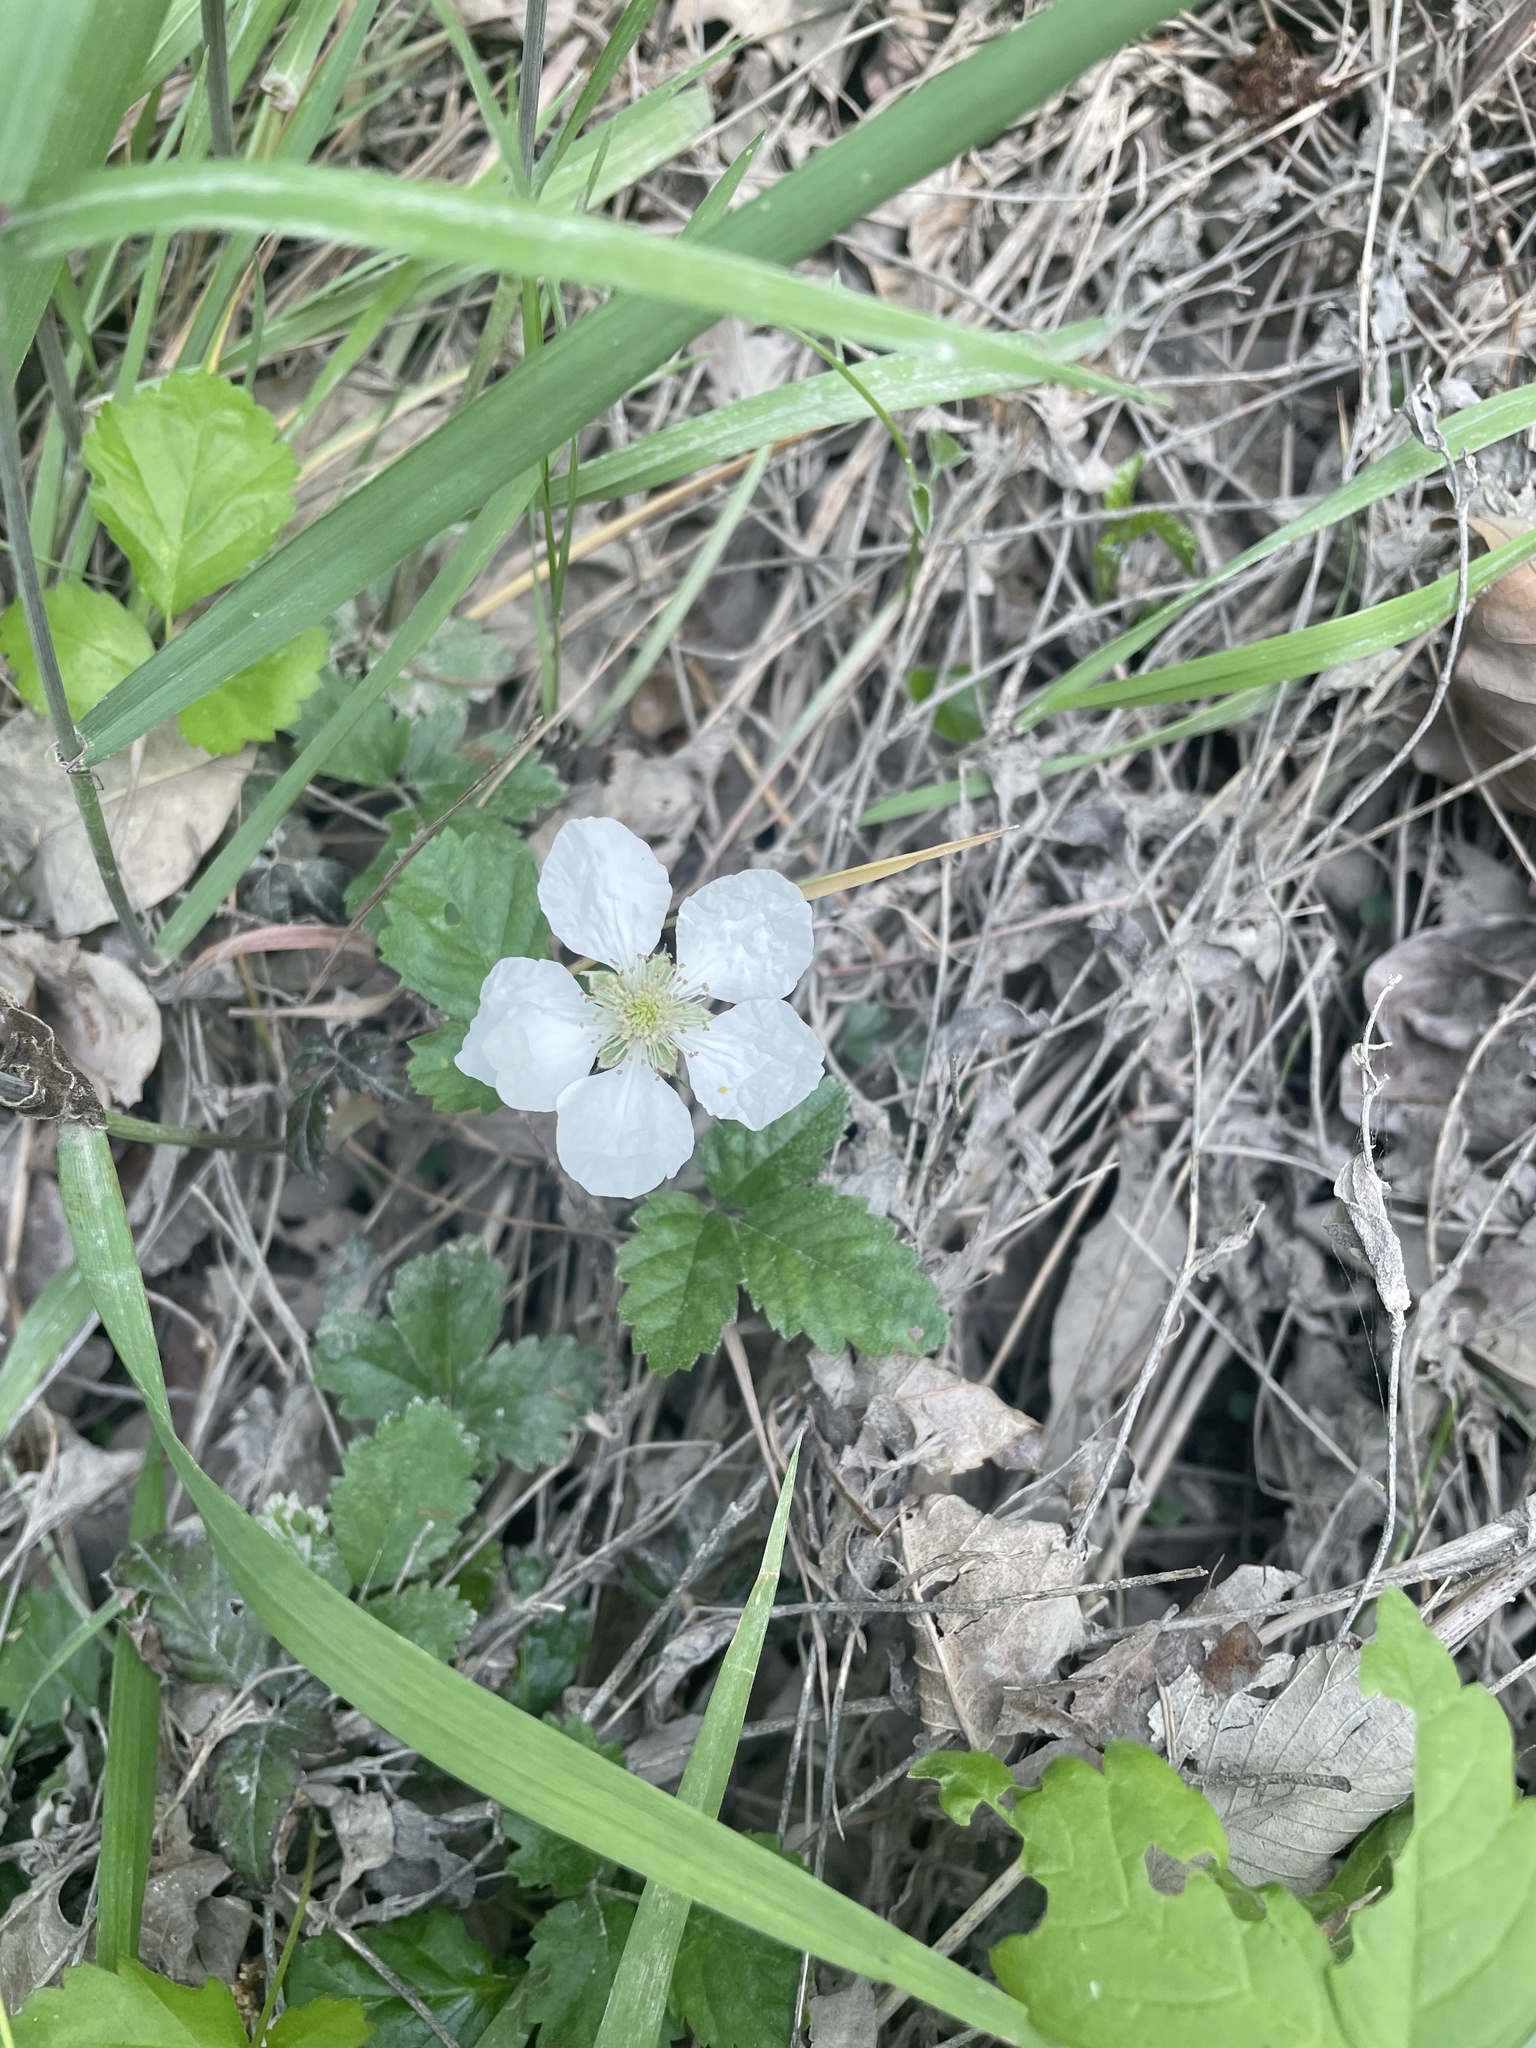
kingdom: Plantae
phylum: Tracheophyta
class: Magnoliopsida
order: Rosales
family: Rosaceae
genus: Rubus
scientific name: Rubus trivialis
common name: Southern dewberry
